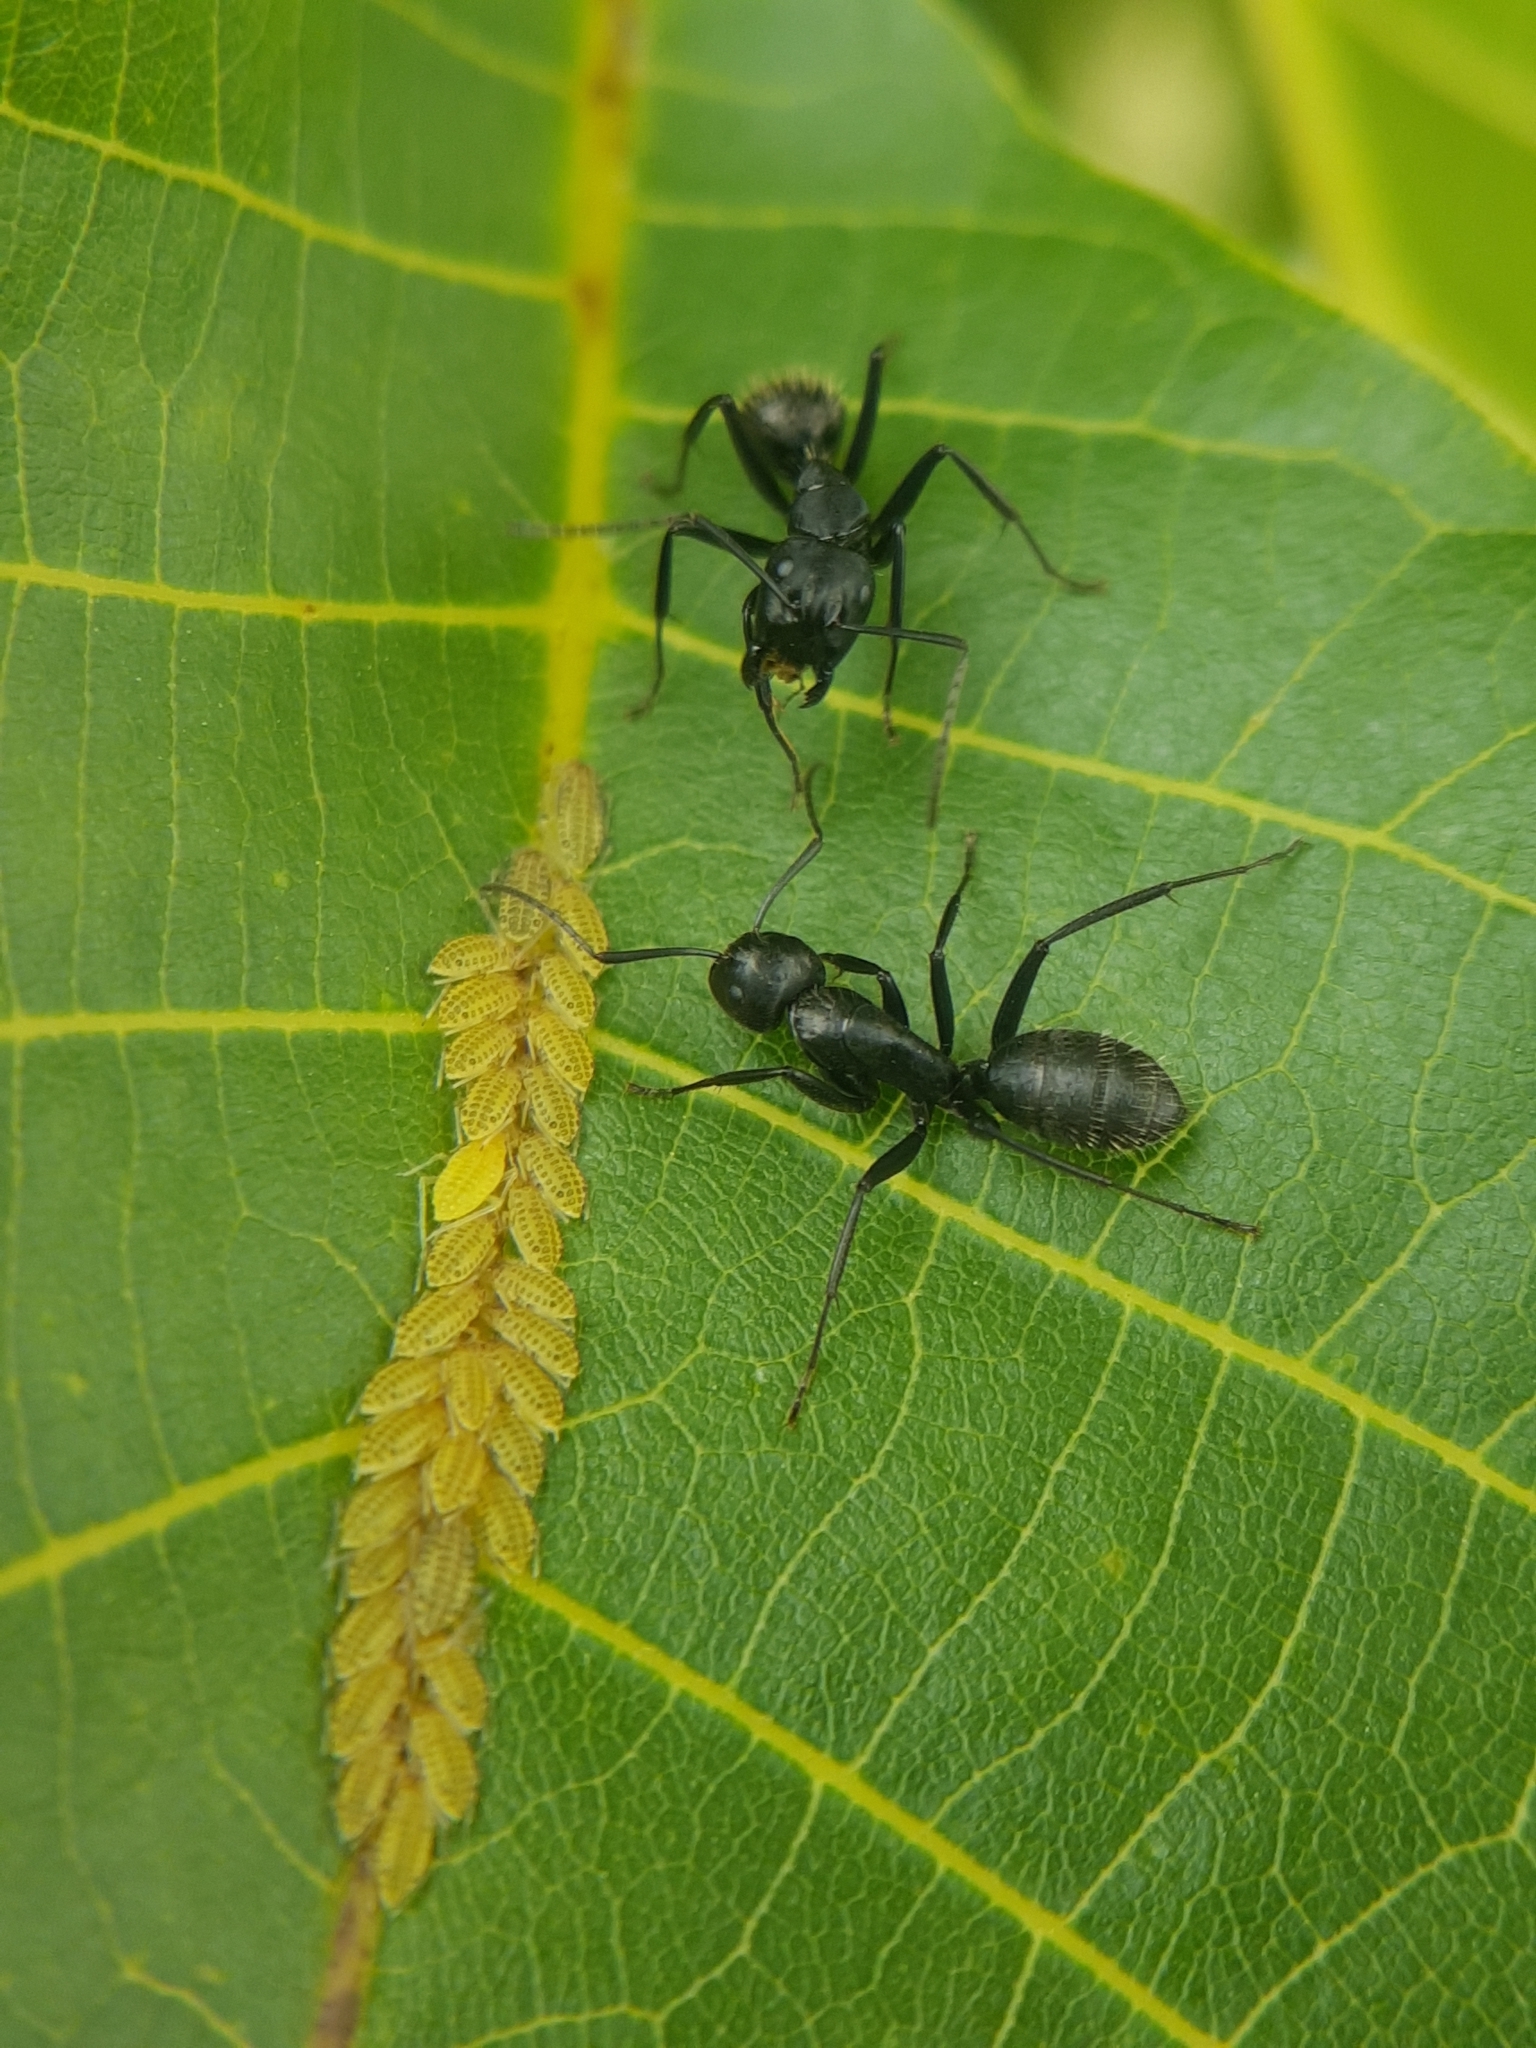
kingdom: Animalia
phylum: Arthropoda
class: Insecta
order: Hymenoptera
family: Formicidae
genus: Camponotus
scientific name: Camponotus vagus
